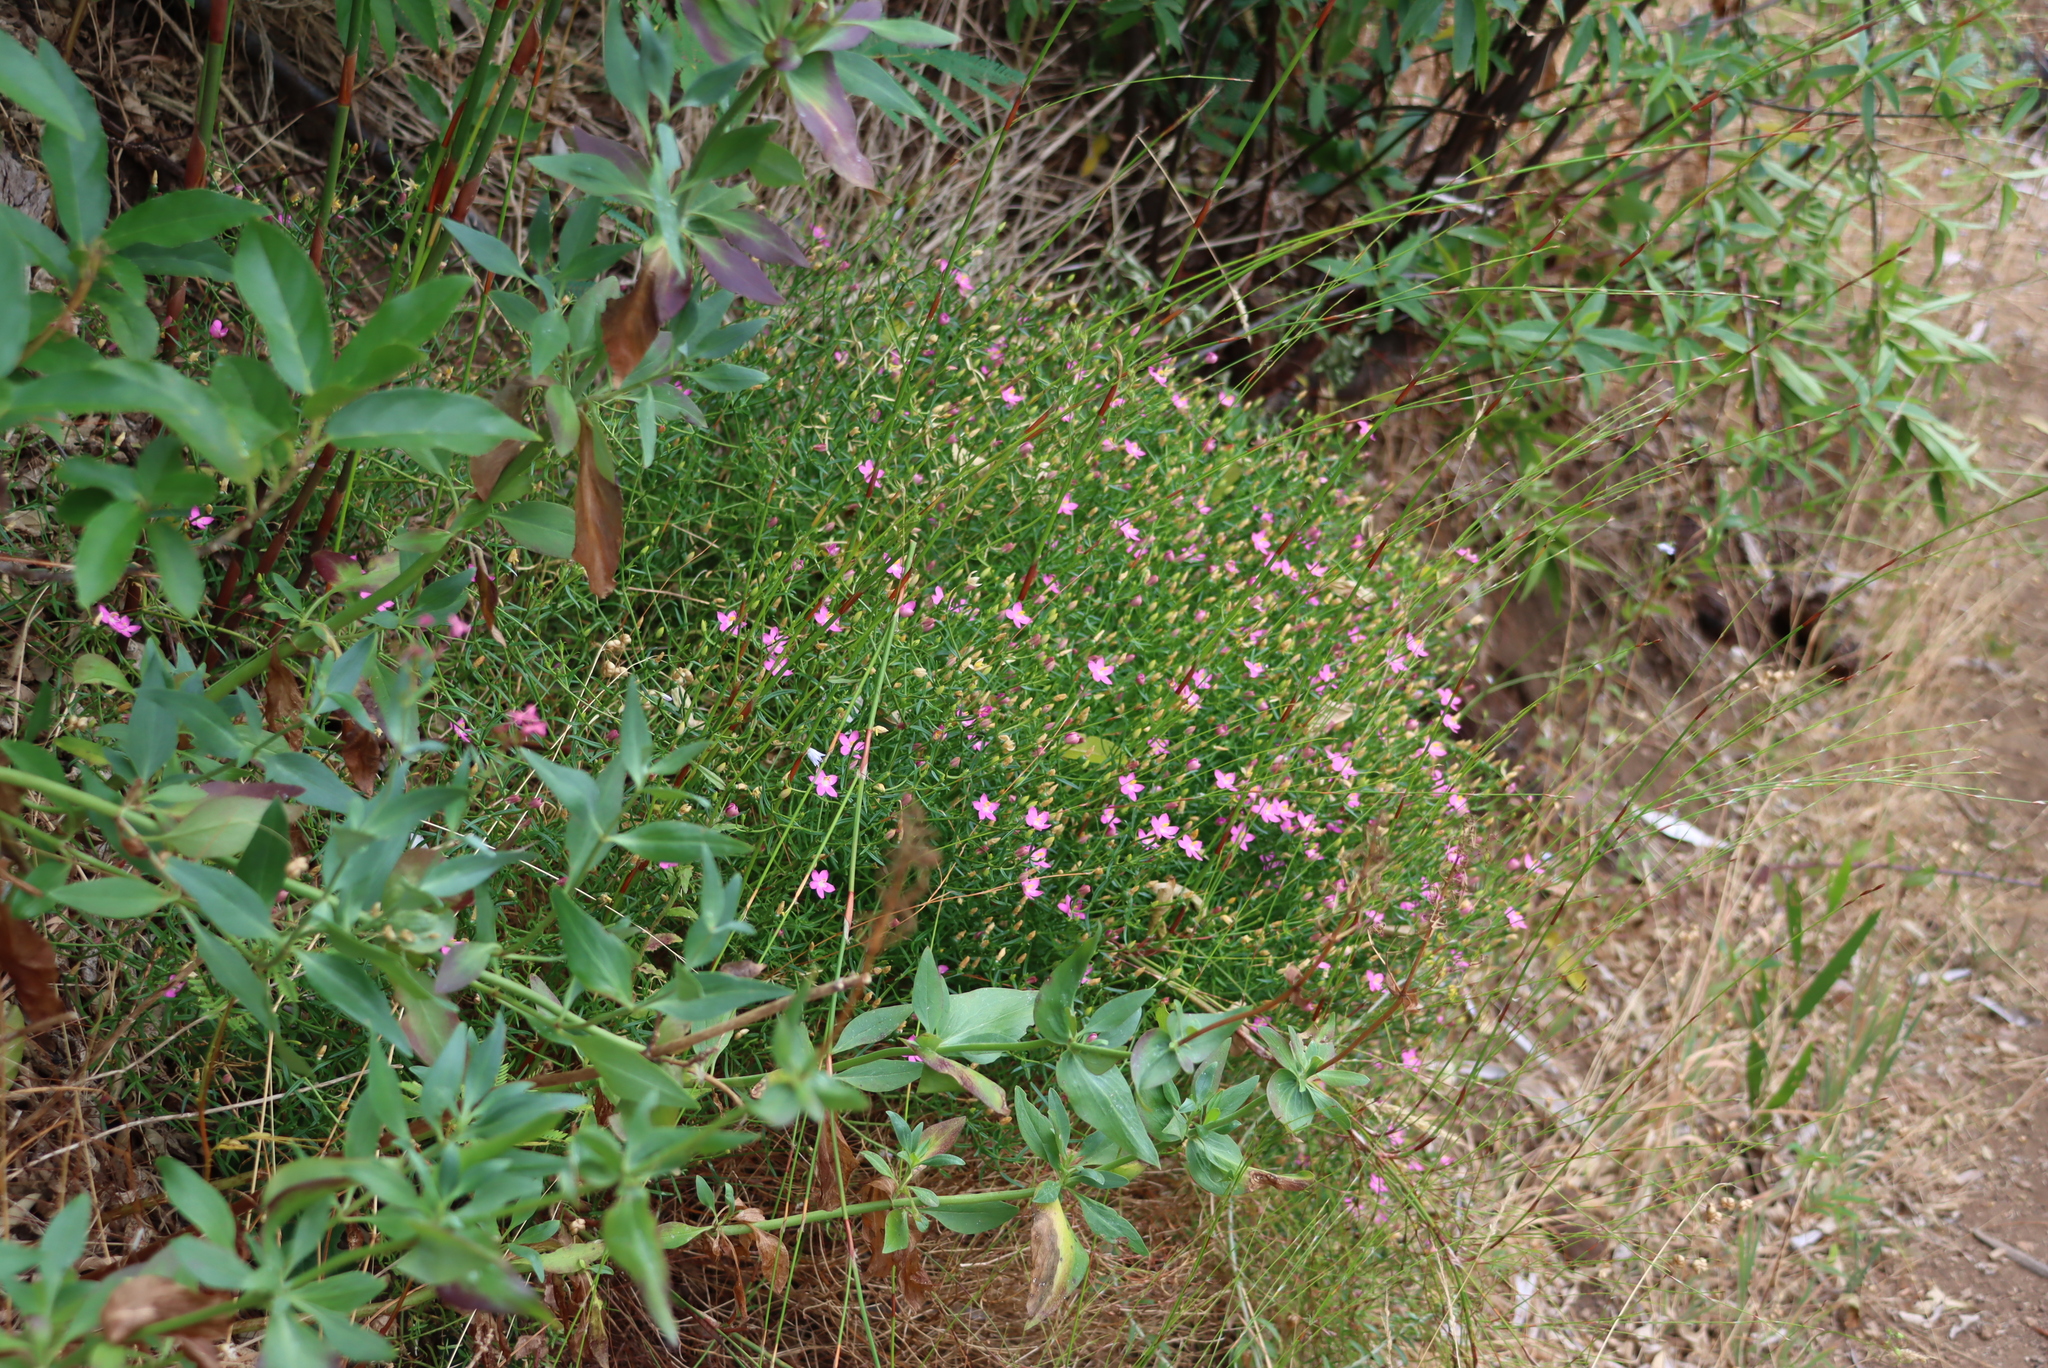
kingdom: Plantae
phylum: Tracheophyta
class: Magnoliopsida
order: Gentianales
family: Gentianaceae
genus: Chironia
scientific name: Chironia baccifera
